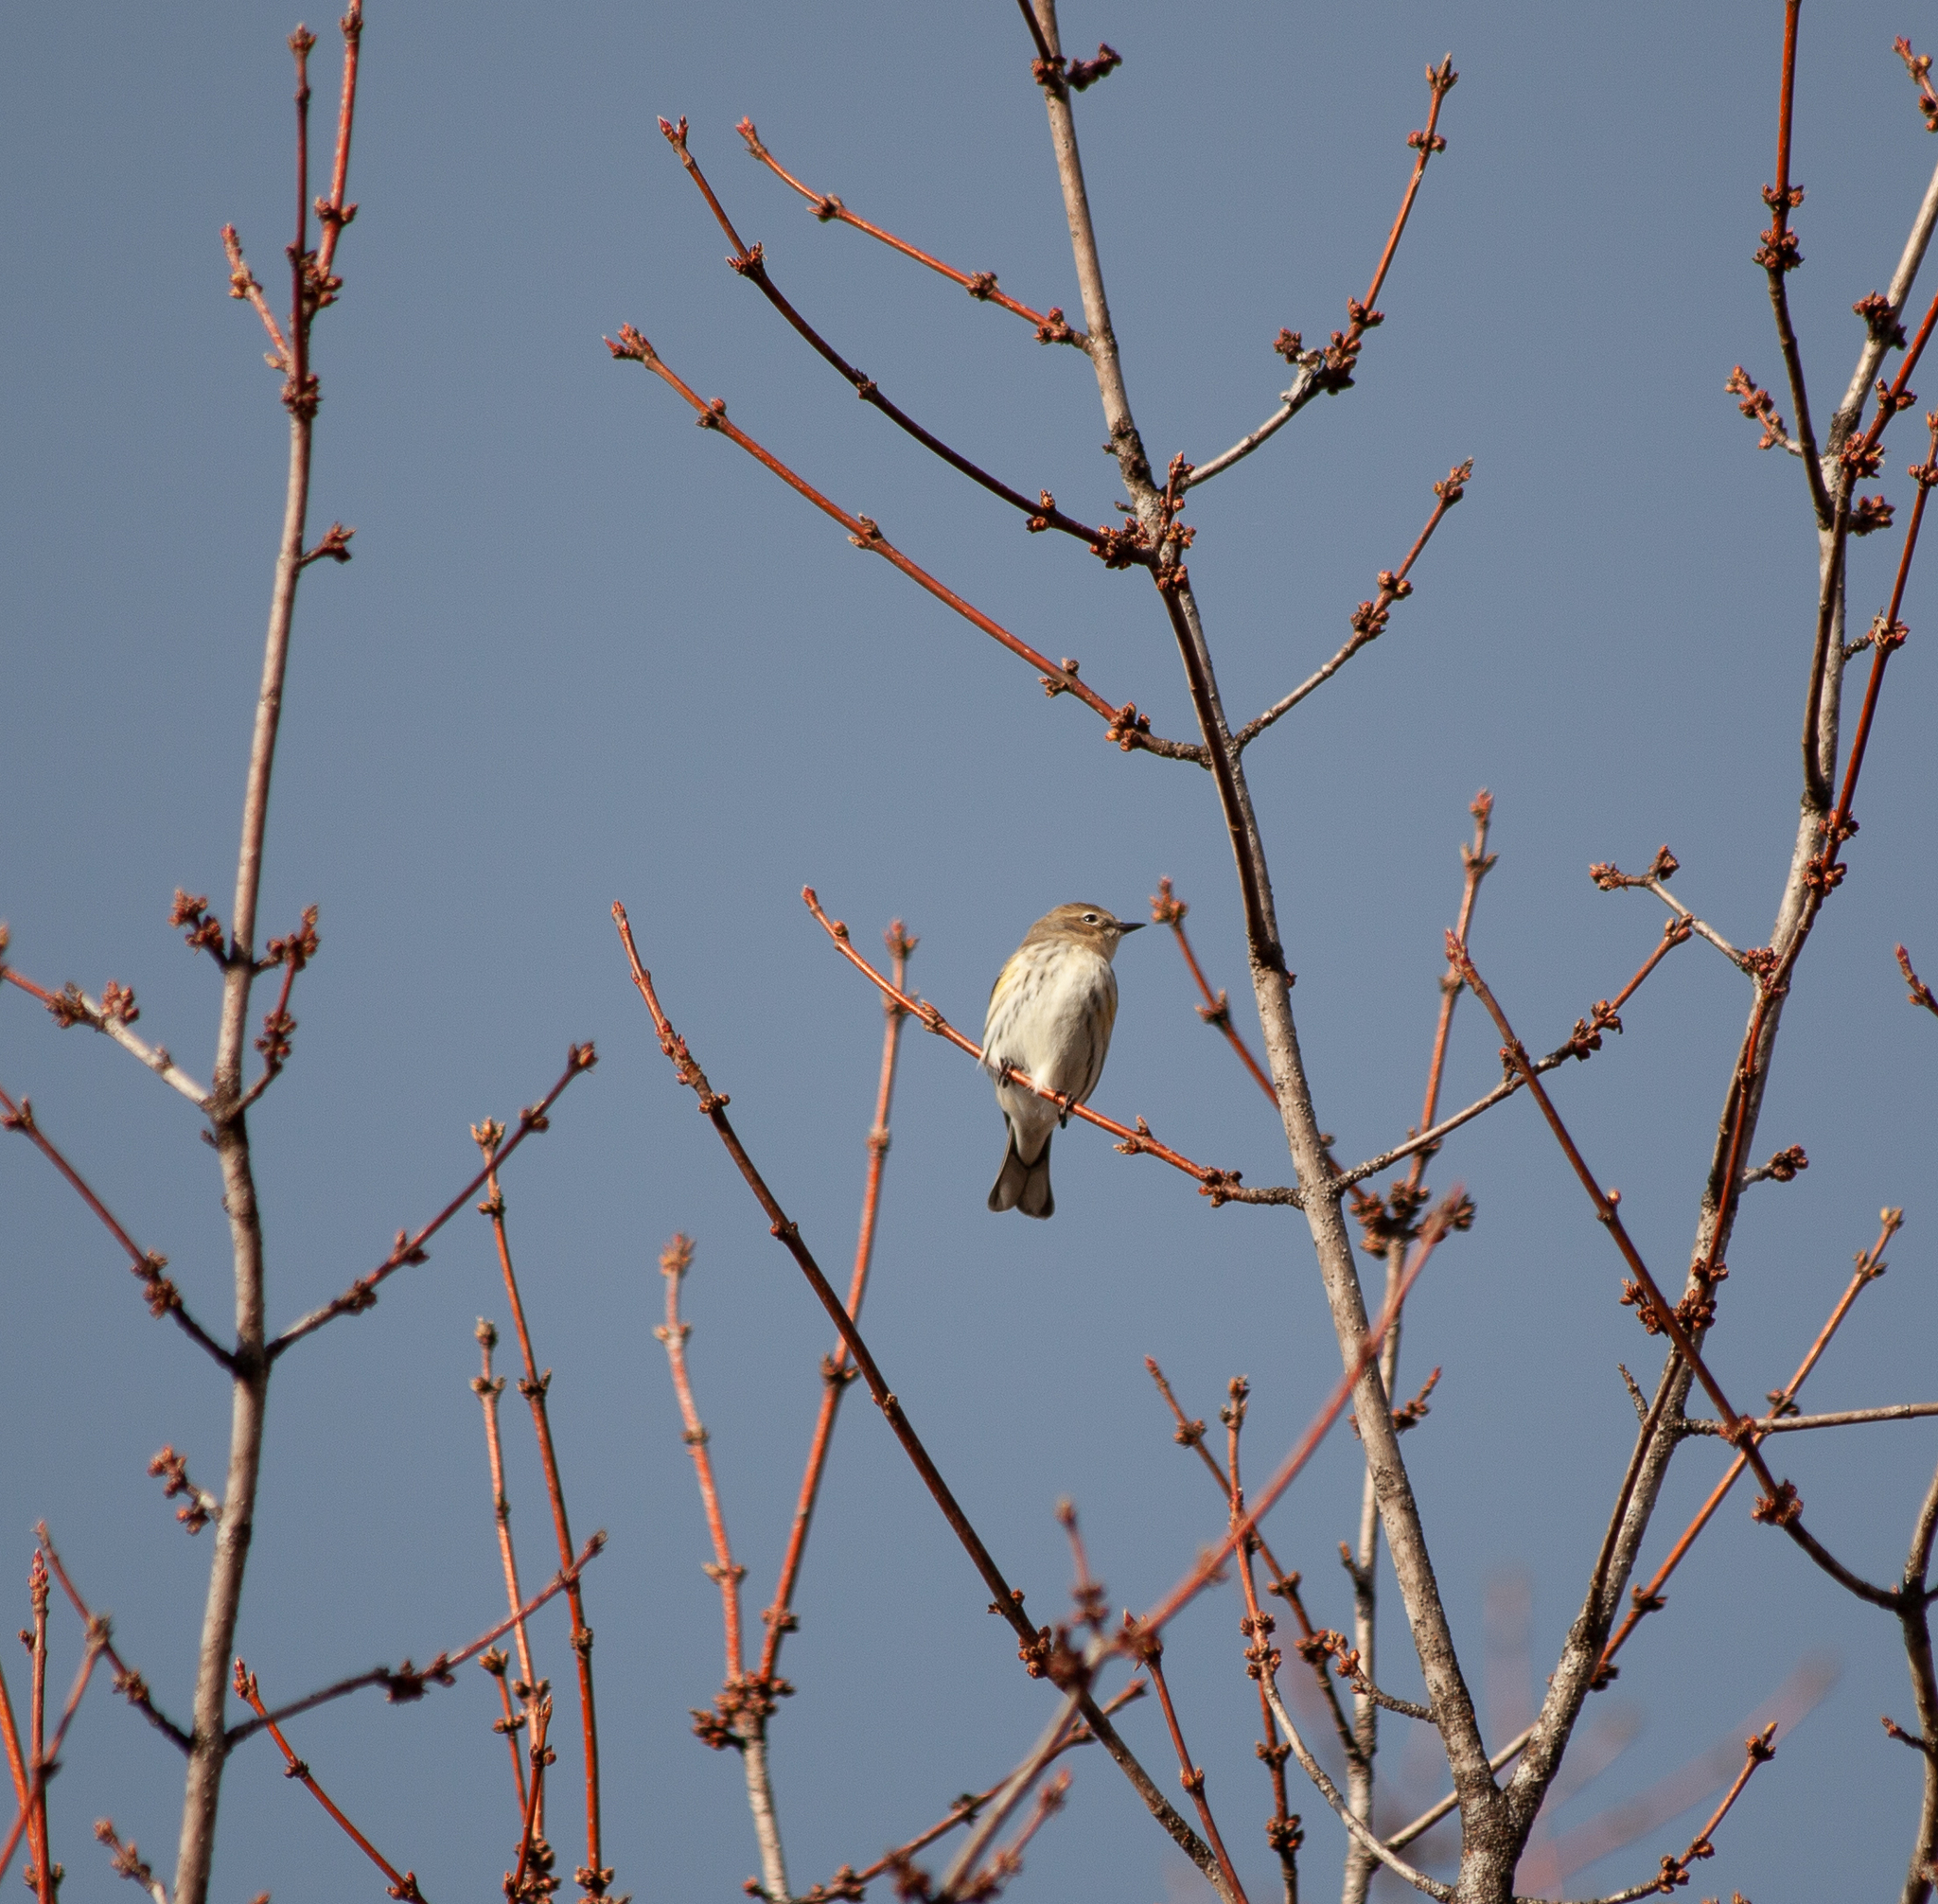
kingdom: Animalia
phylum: Chordata
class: Aves
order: Passeriformes
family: Parulidae
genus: Setophaga
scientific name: Setophaga coronata
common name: Myrtle warbler
